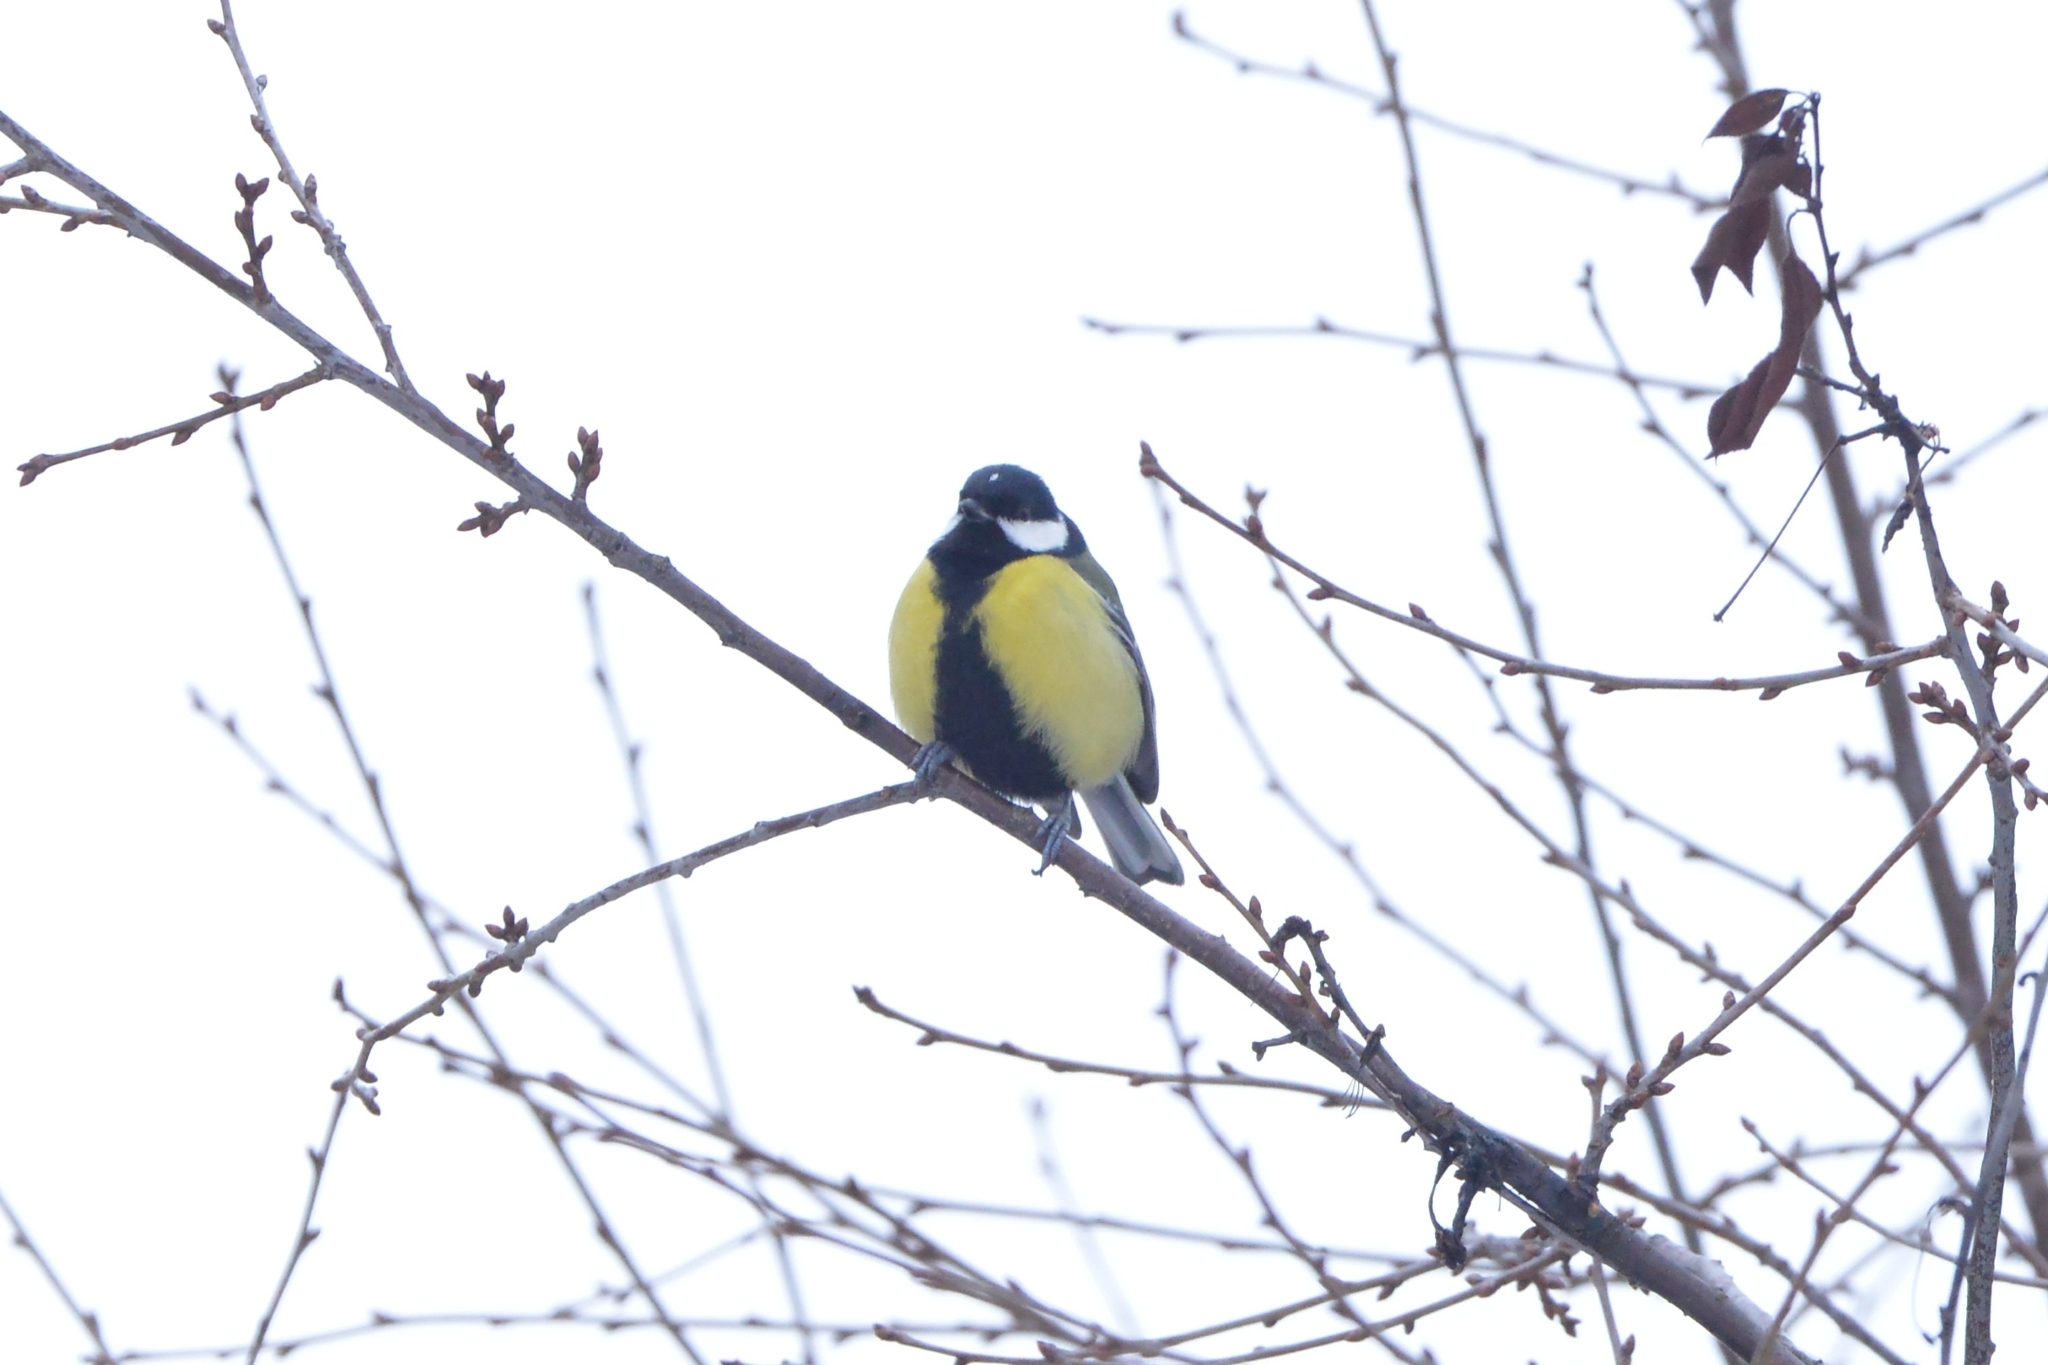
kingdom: Animalia
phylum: Chordata
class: Aves
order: Passeriformes
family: Paridae
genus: Parus
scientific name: Parus major
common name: Great tit
